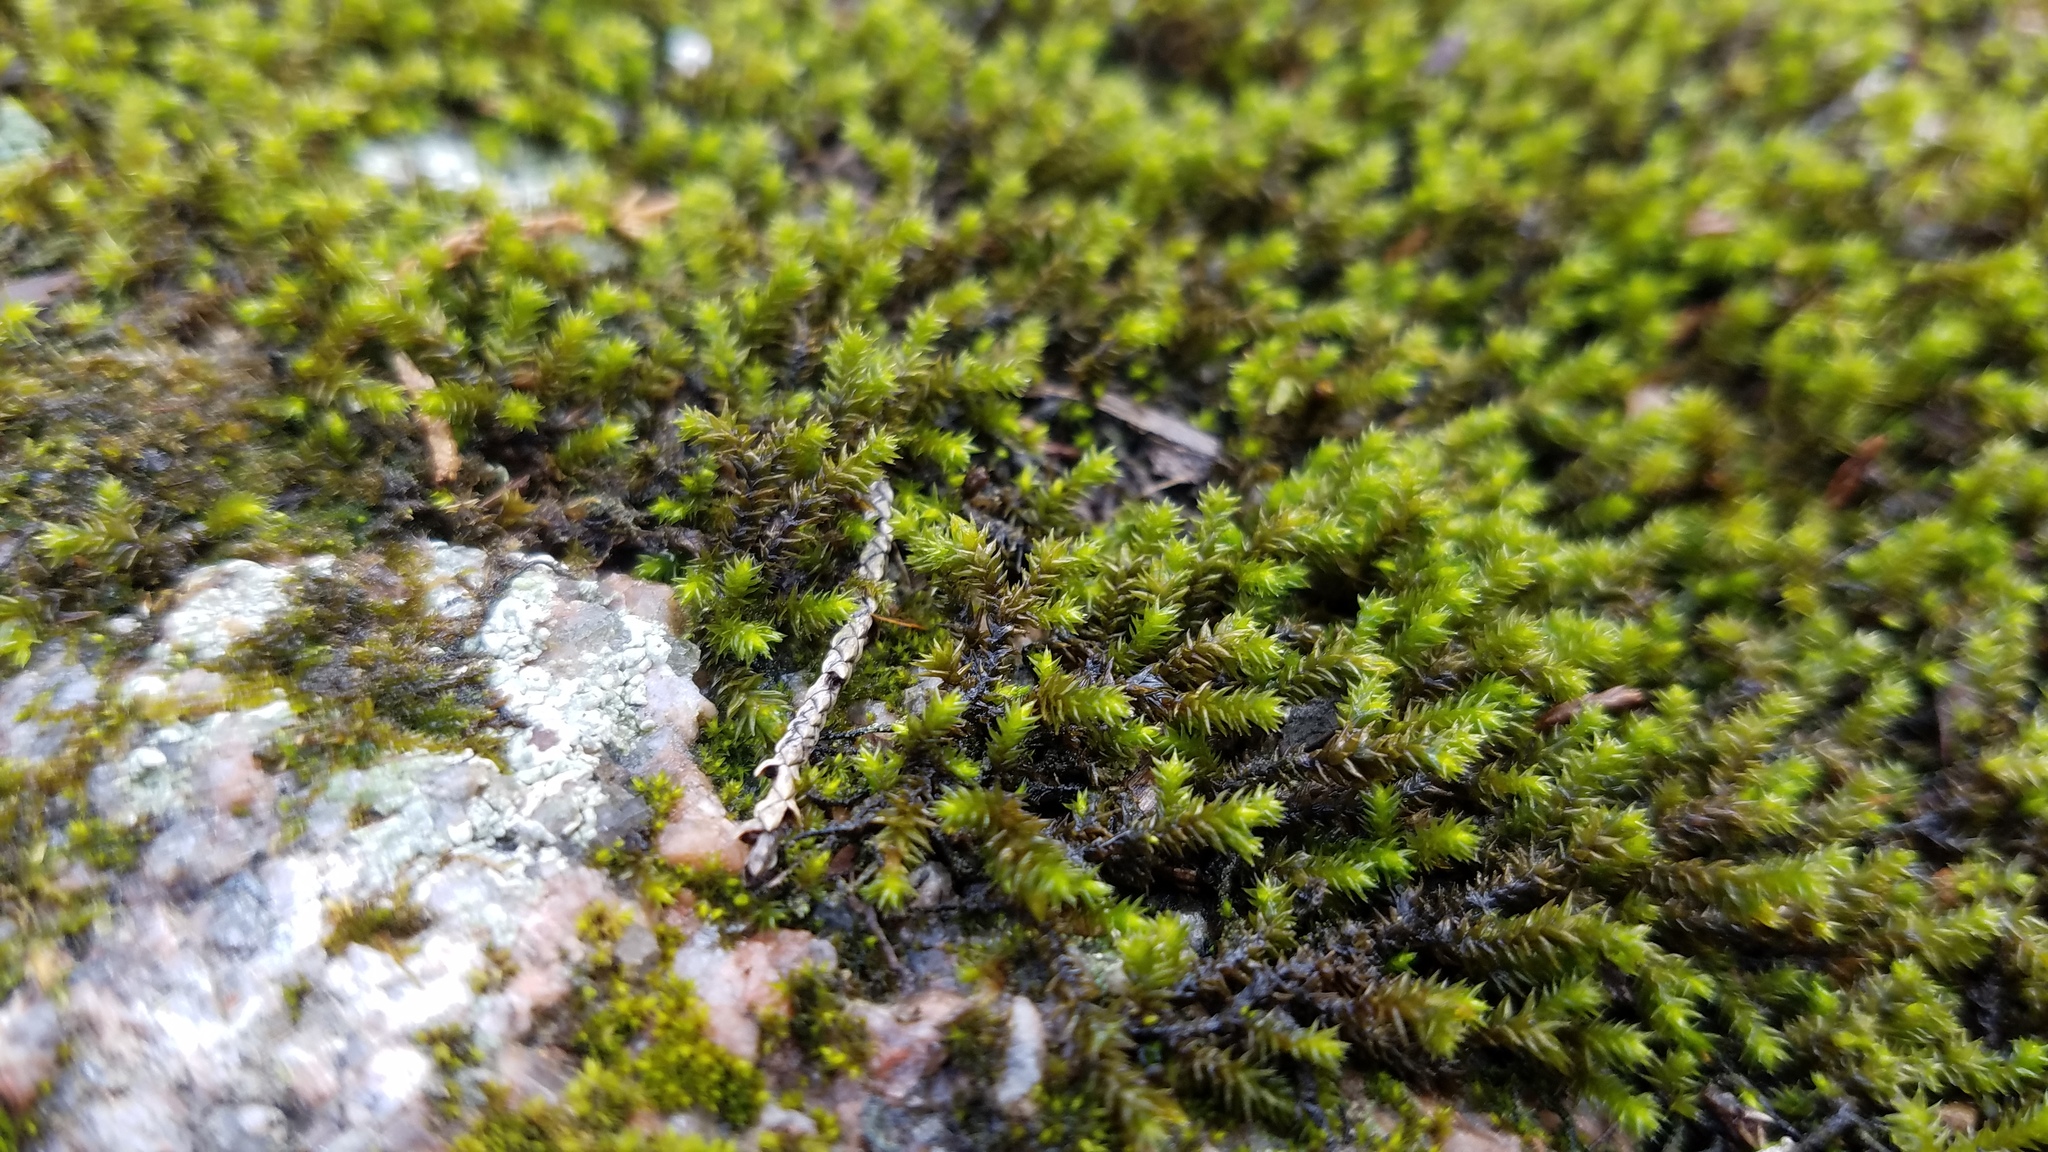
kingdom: Plantae
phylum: Bryophyta
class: Bryopsida
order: Hedwigiales
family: Hedwigiaceae
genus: Hedwigia
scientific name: Hedwigia ciliata
